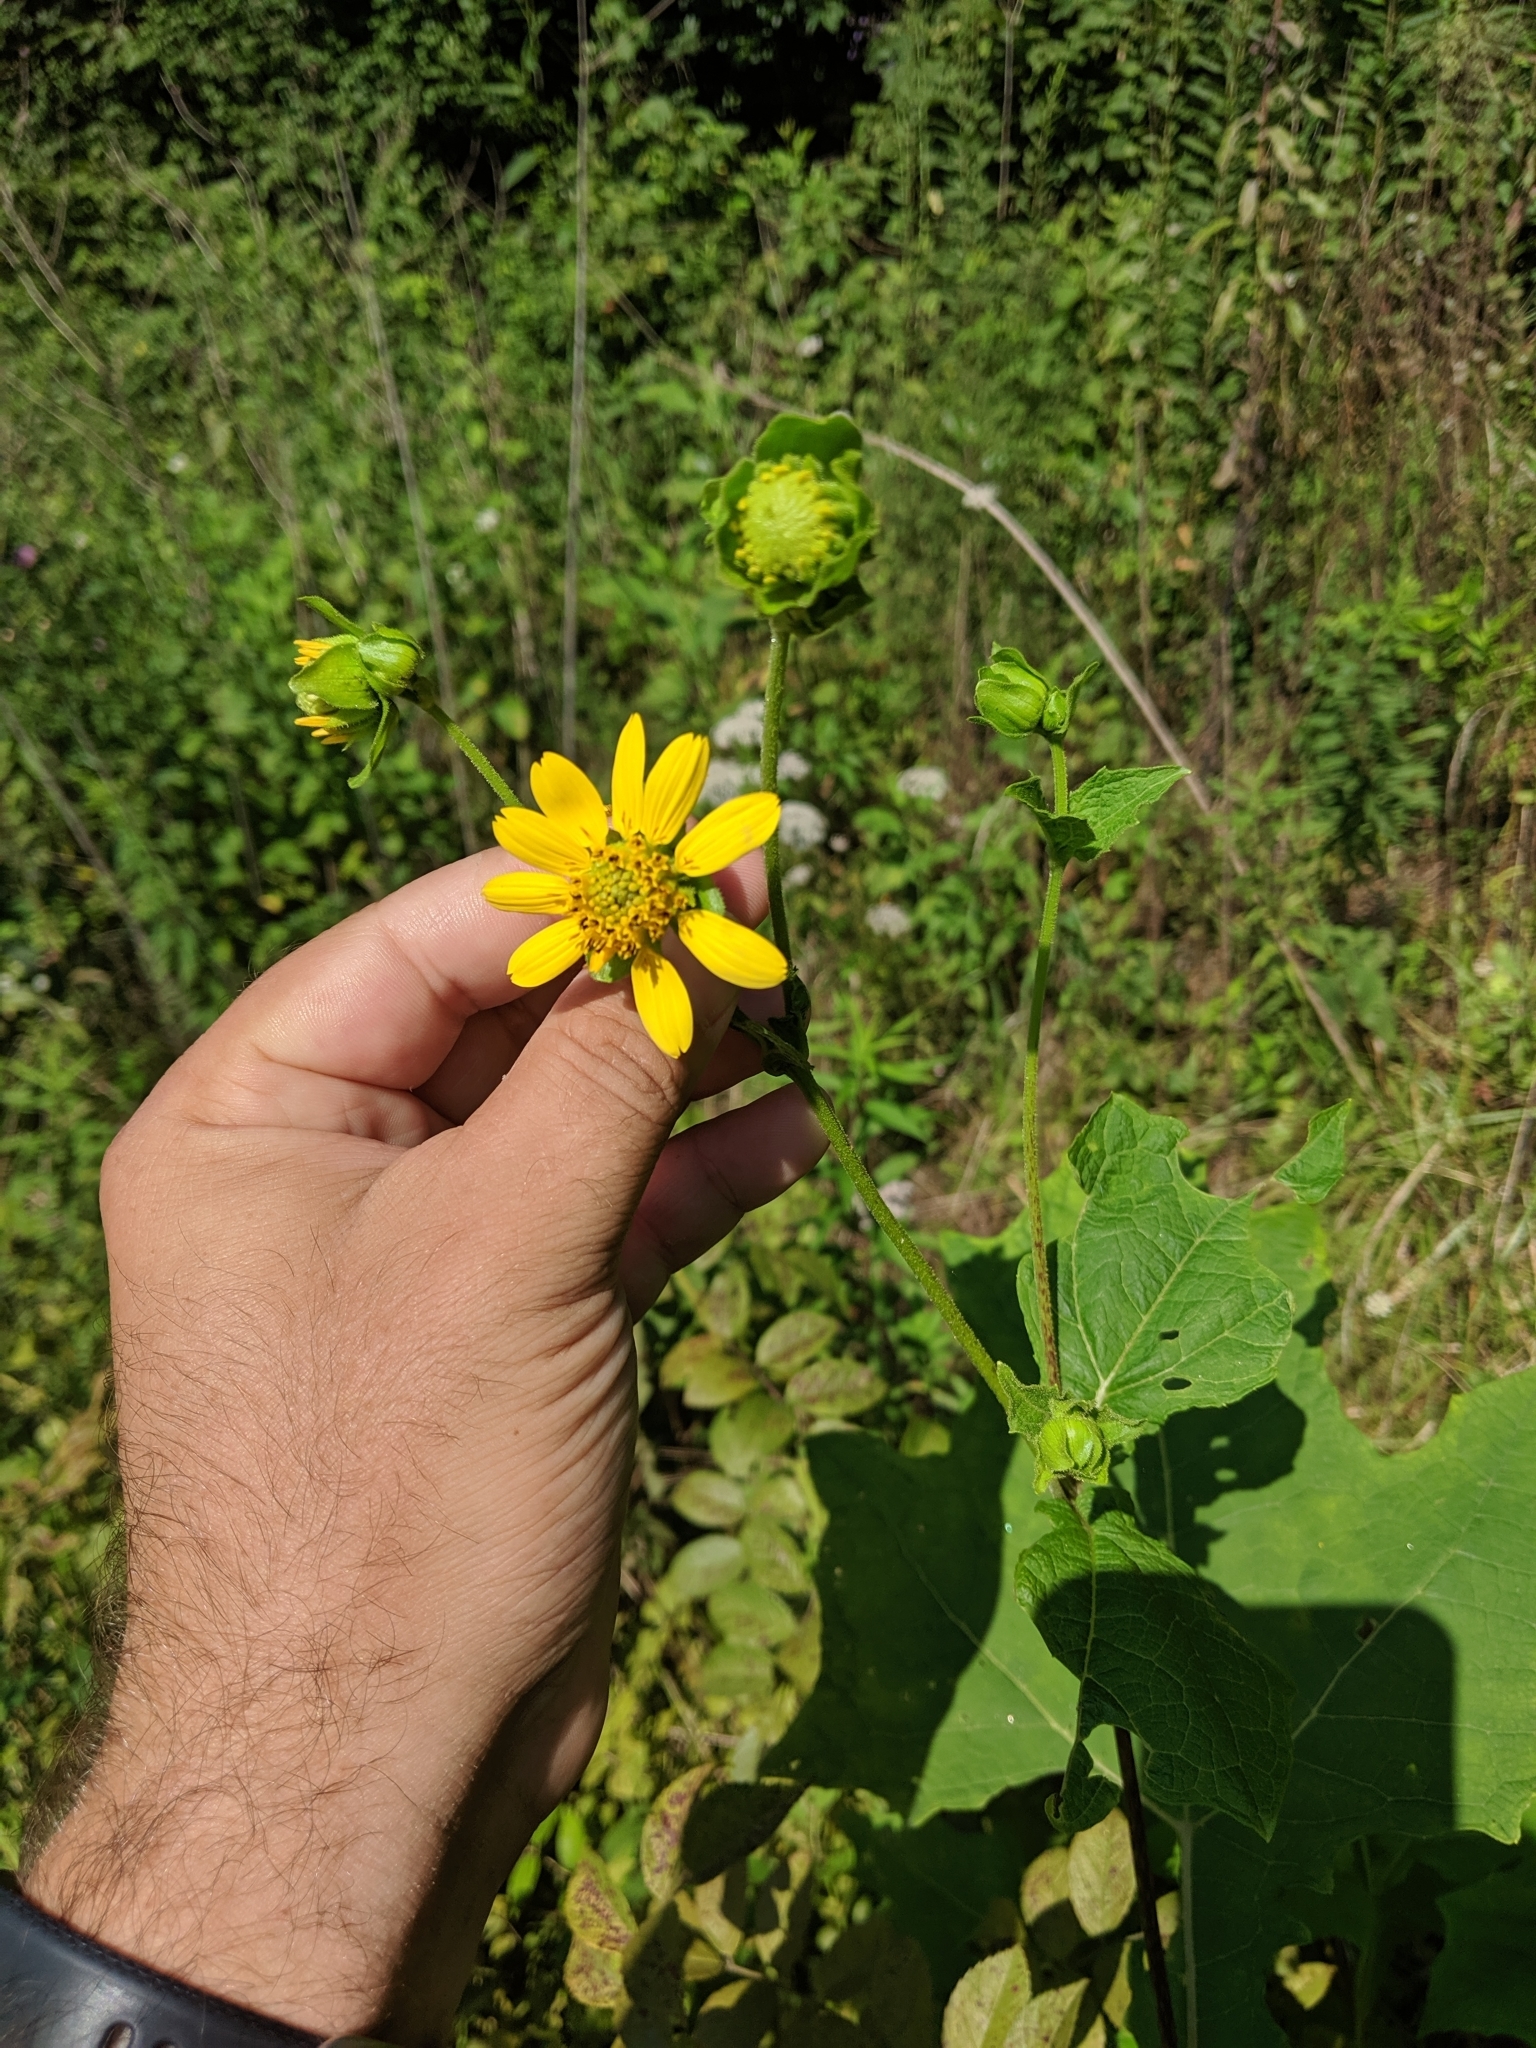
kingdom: Plantae
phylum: Tracheophyta
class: Magnoliopsida
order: Asterales
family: Asteraceae
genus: Smallanthus
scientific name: Smallanthus uvedalia
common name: Bear's-foot
